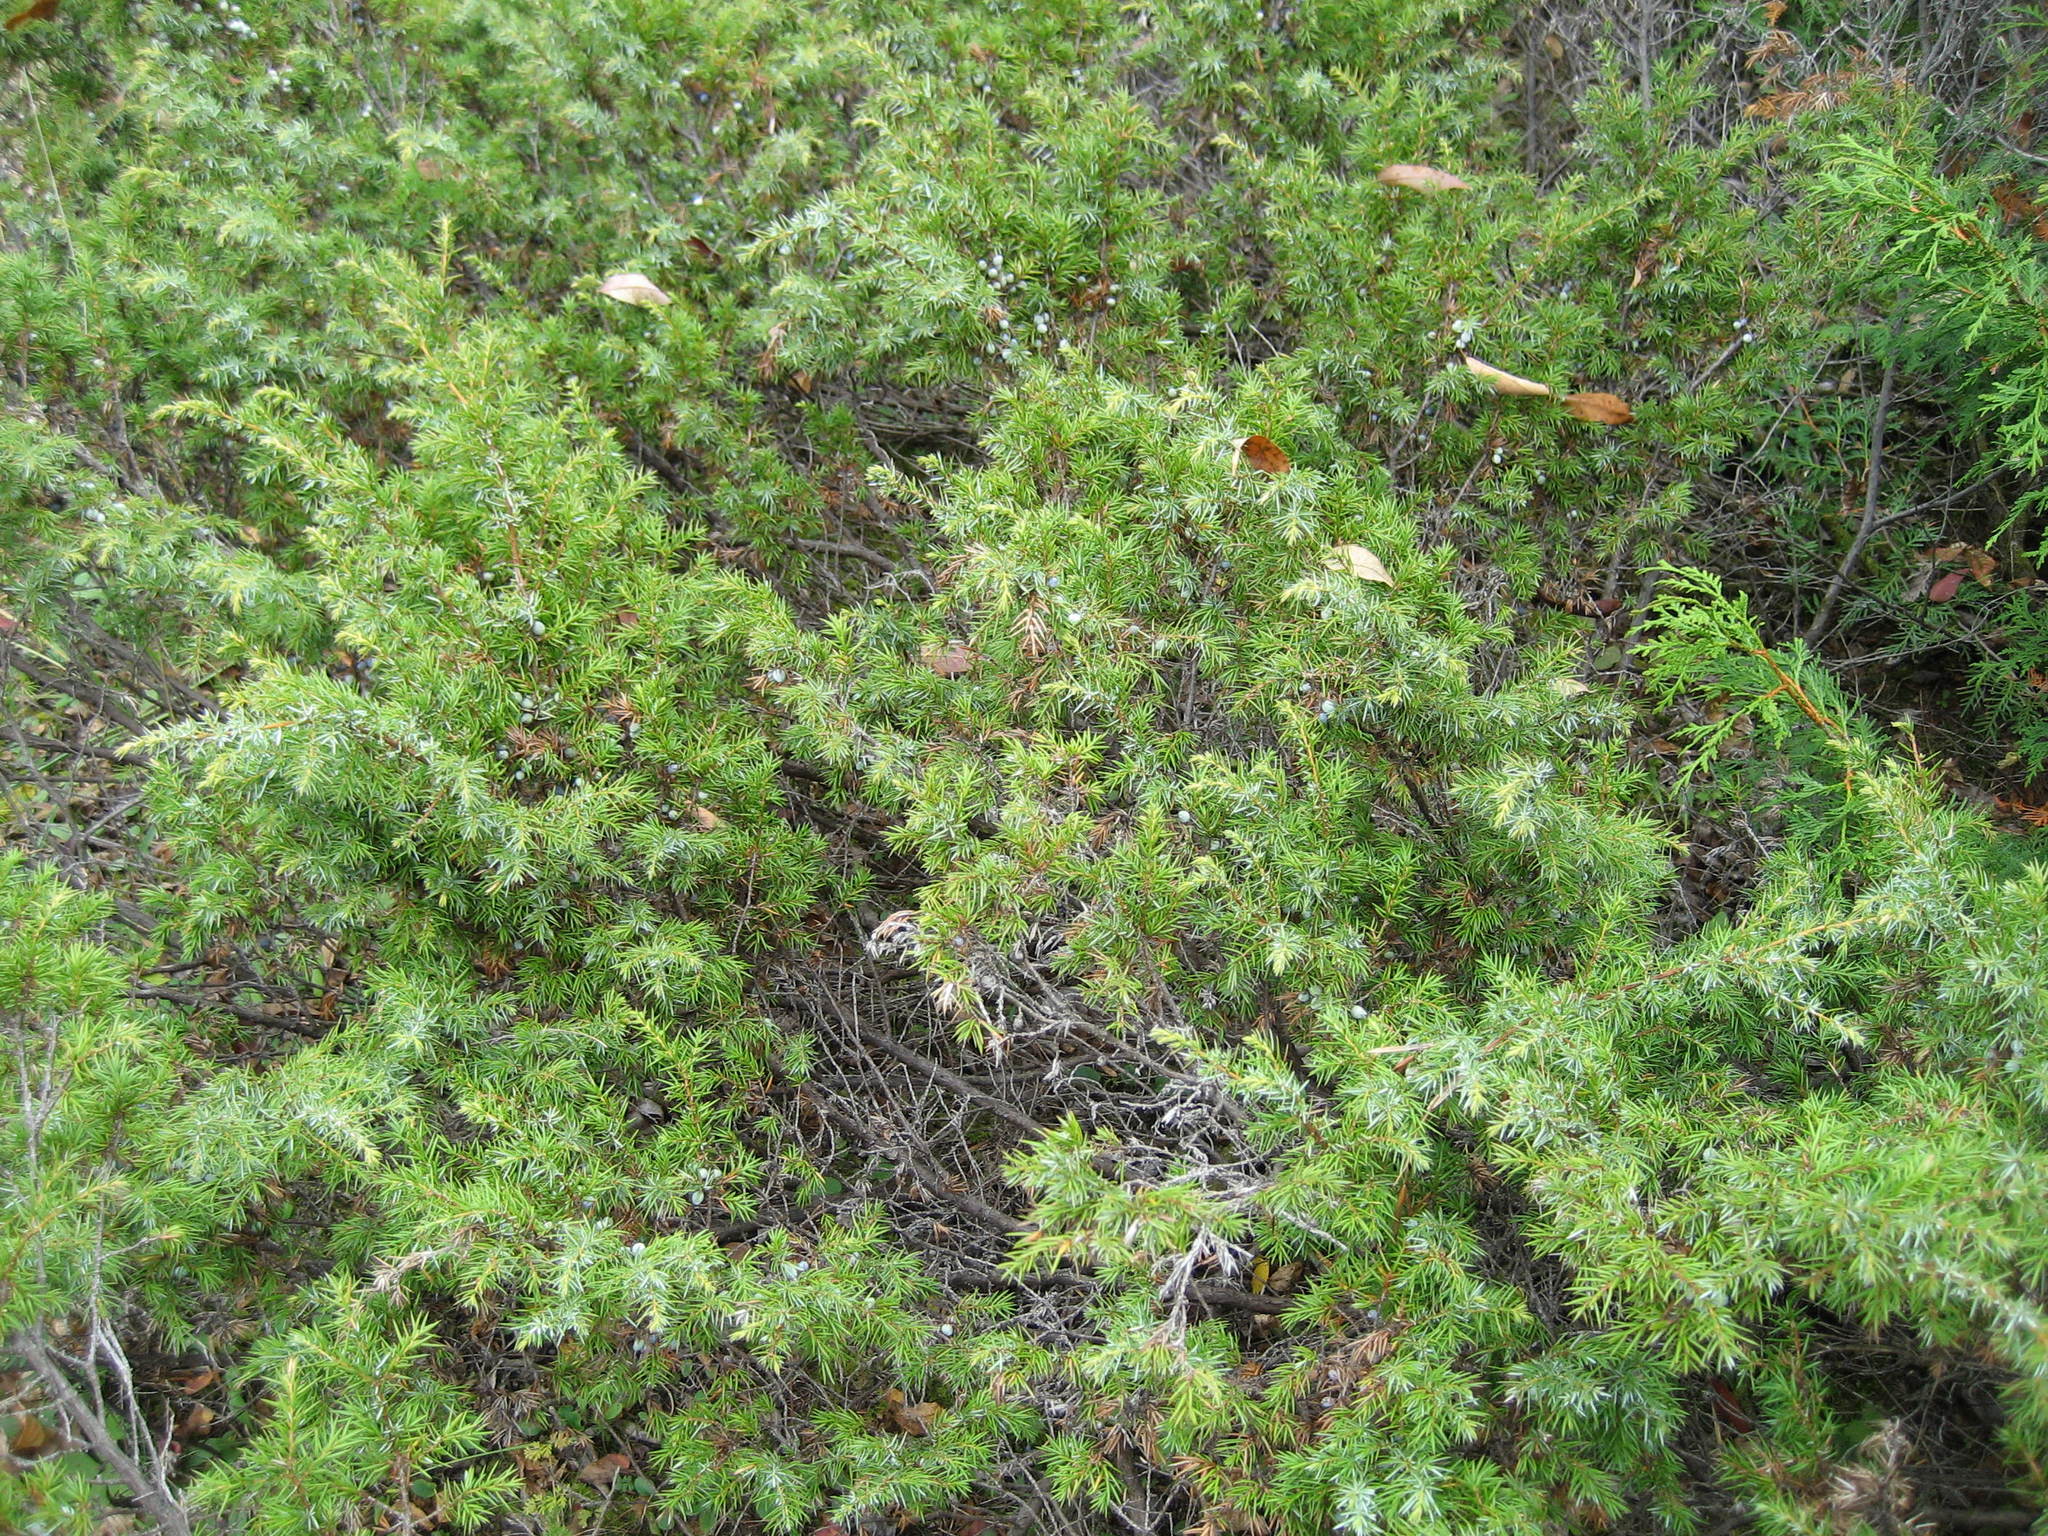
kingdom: Plantae
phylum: Tracheophyta
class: Pinopsida
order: Pinales
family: Cupressaceae
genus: Juniperus
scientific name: Juniperus communis
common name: Common juniper
